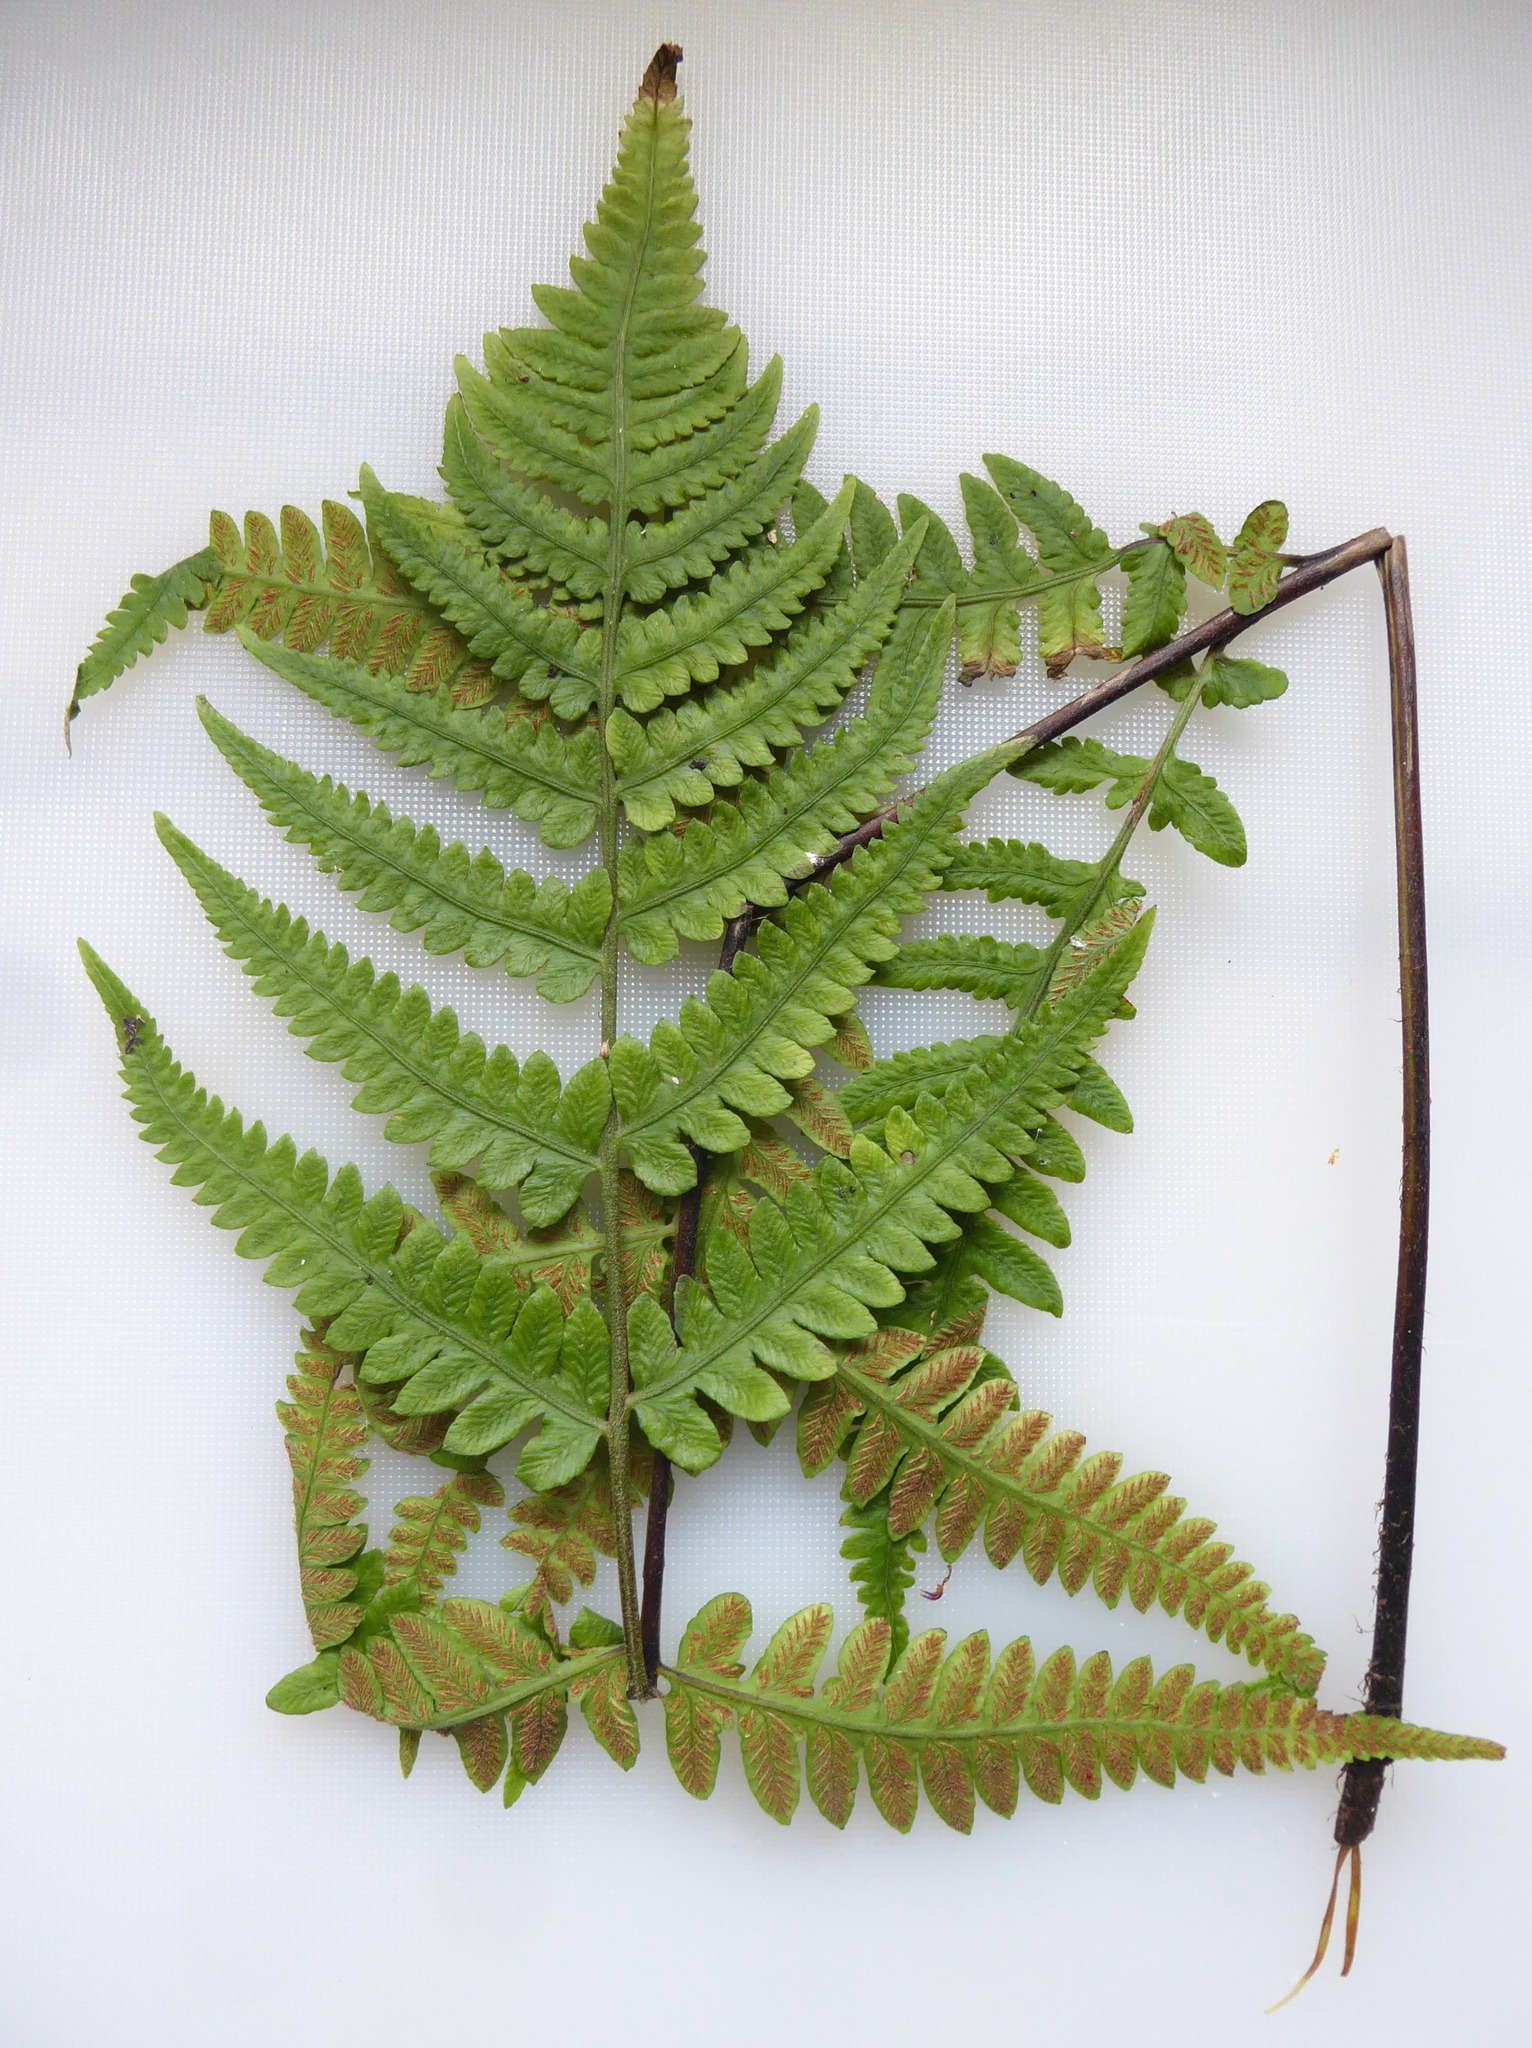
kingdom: Plantae
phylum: Tracheophyta
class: Polypodiopsida
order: Polypodiales
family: Athyriaceae
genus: Deparia
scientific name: Deparia petersenii
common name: Japanese false spleenwort
